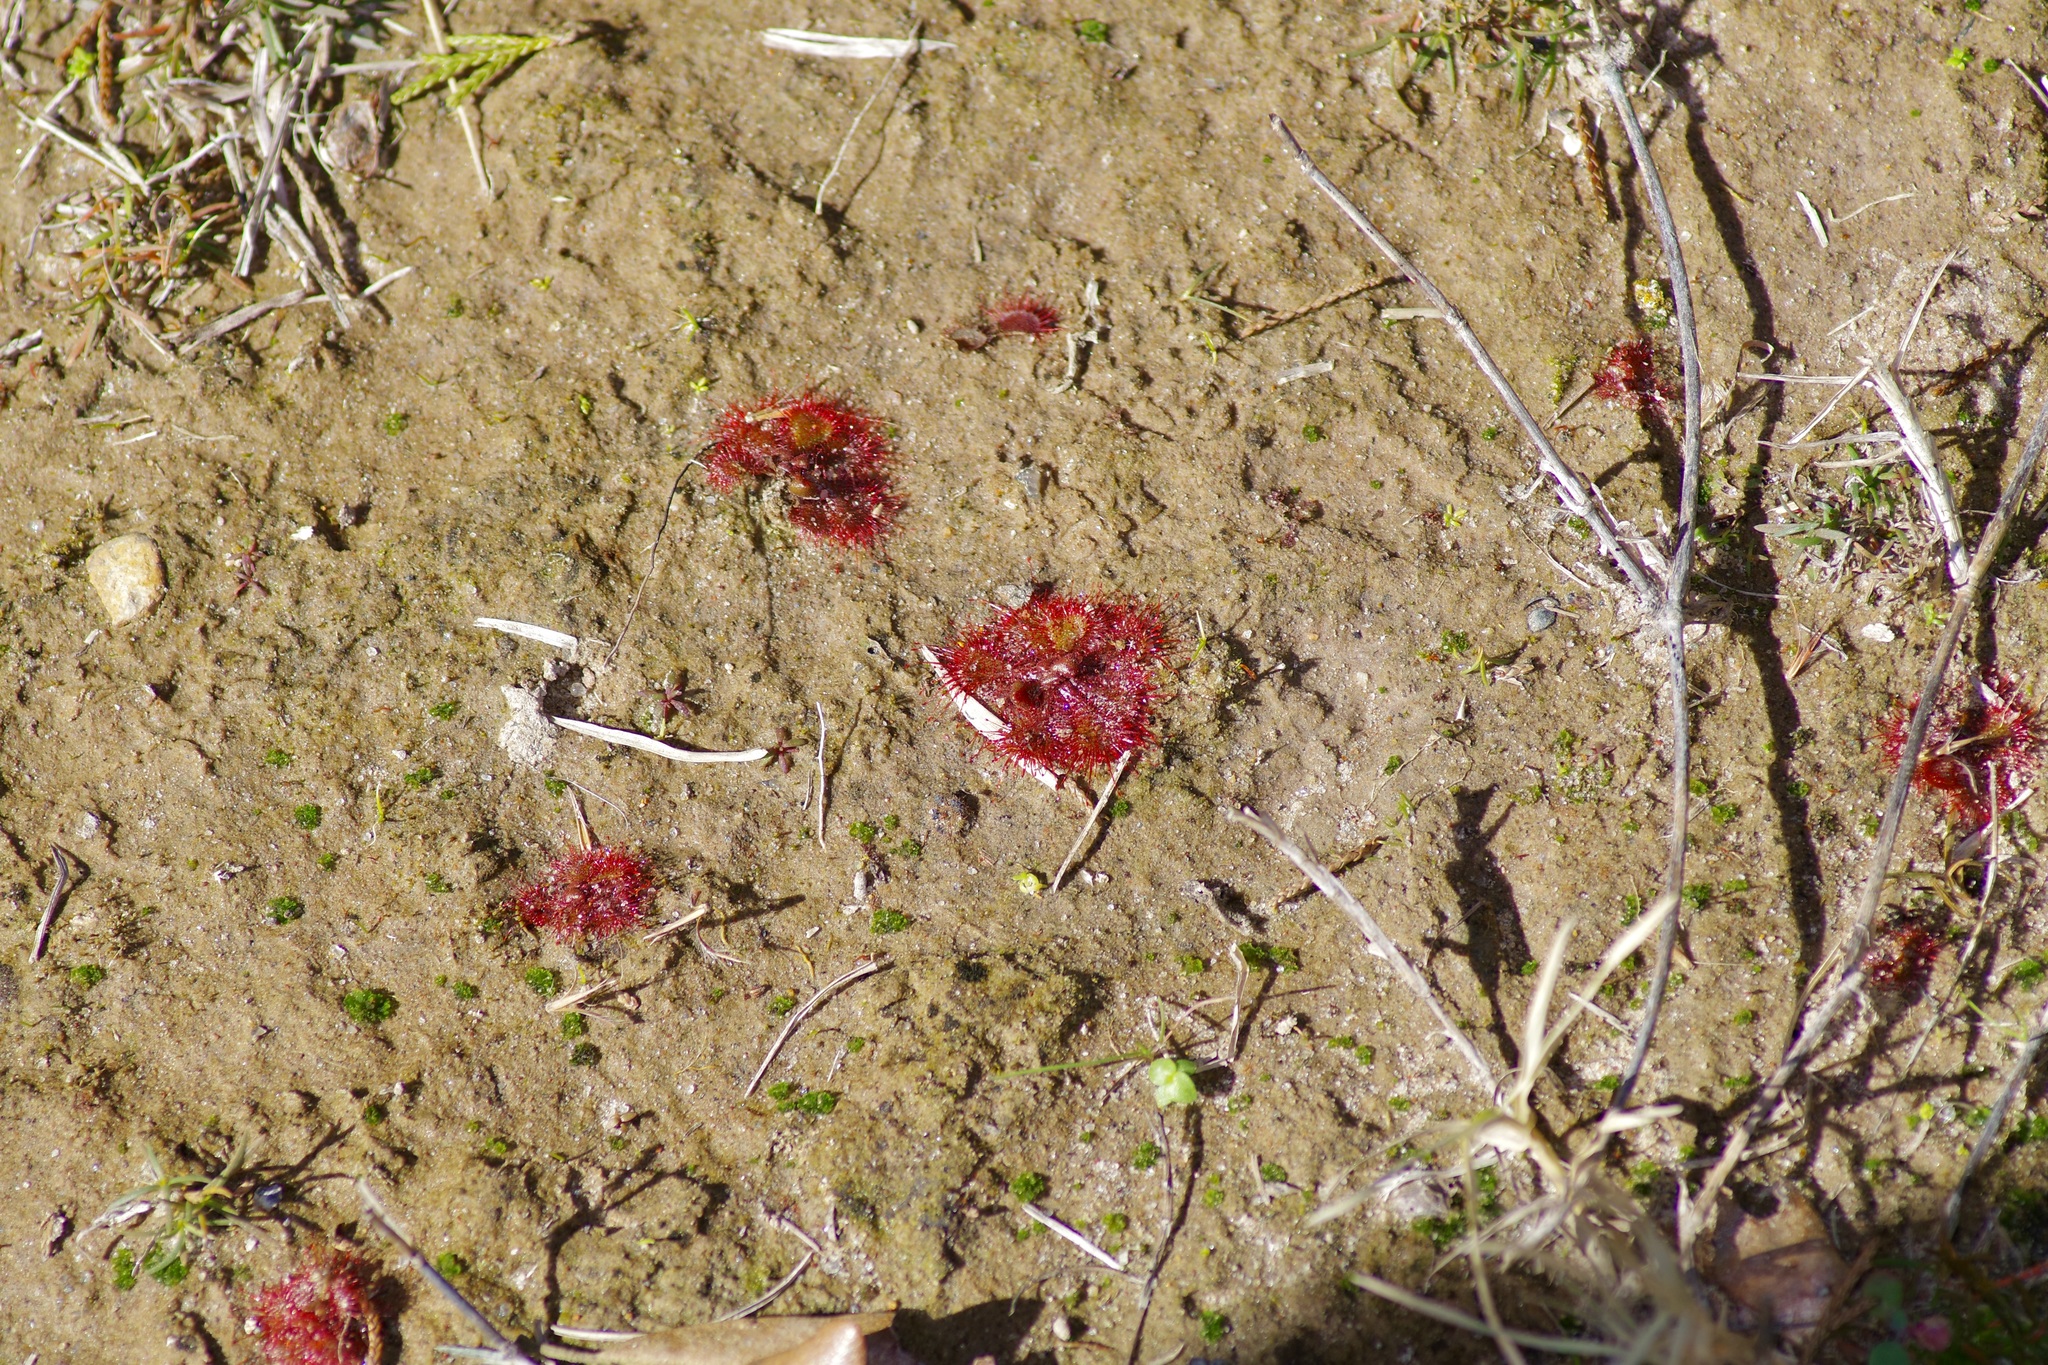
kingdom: Plantae
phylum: Tracheophyta
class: Magnoliopsida
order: Caryophyllales
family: Droseraceae
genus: Drosera
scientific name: Drosera brevifolia
